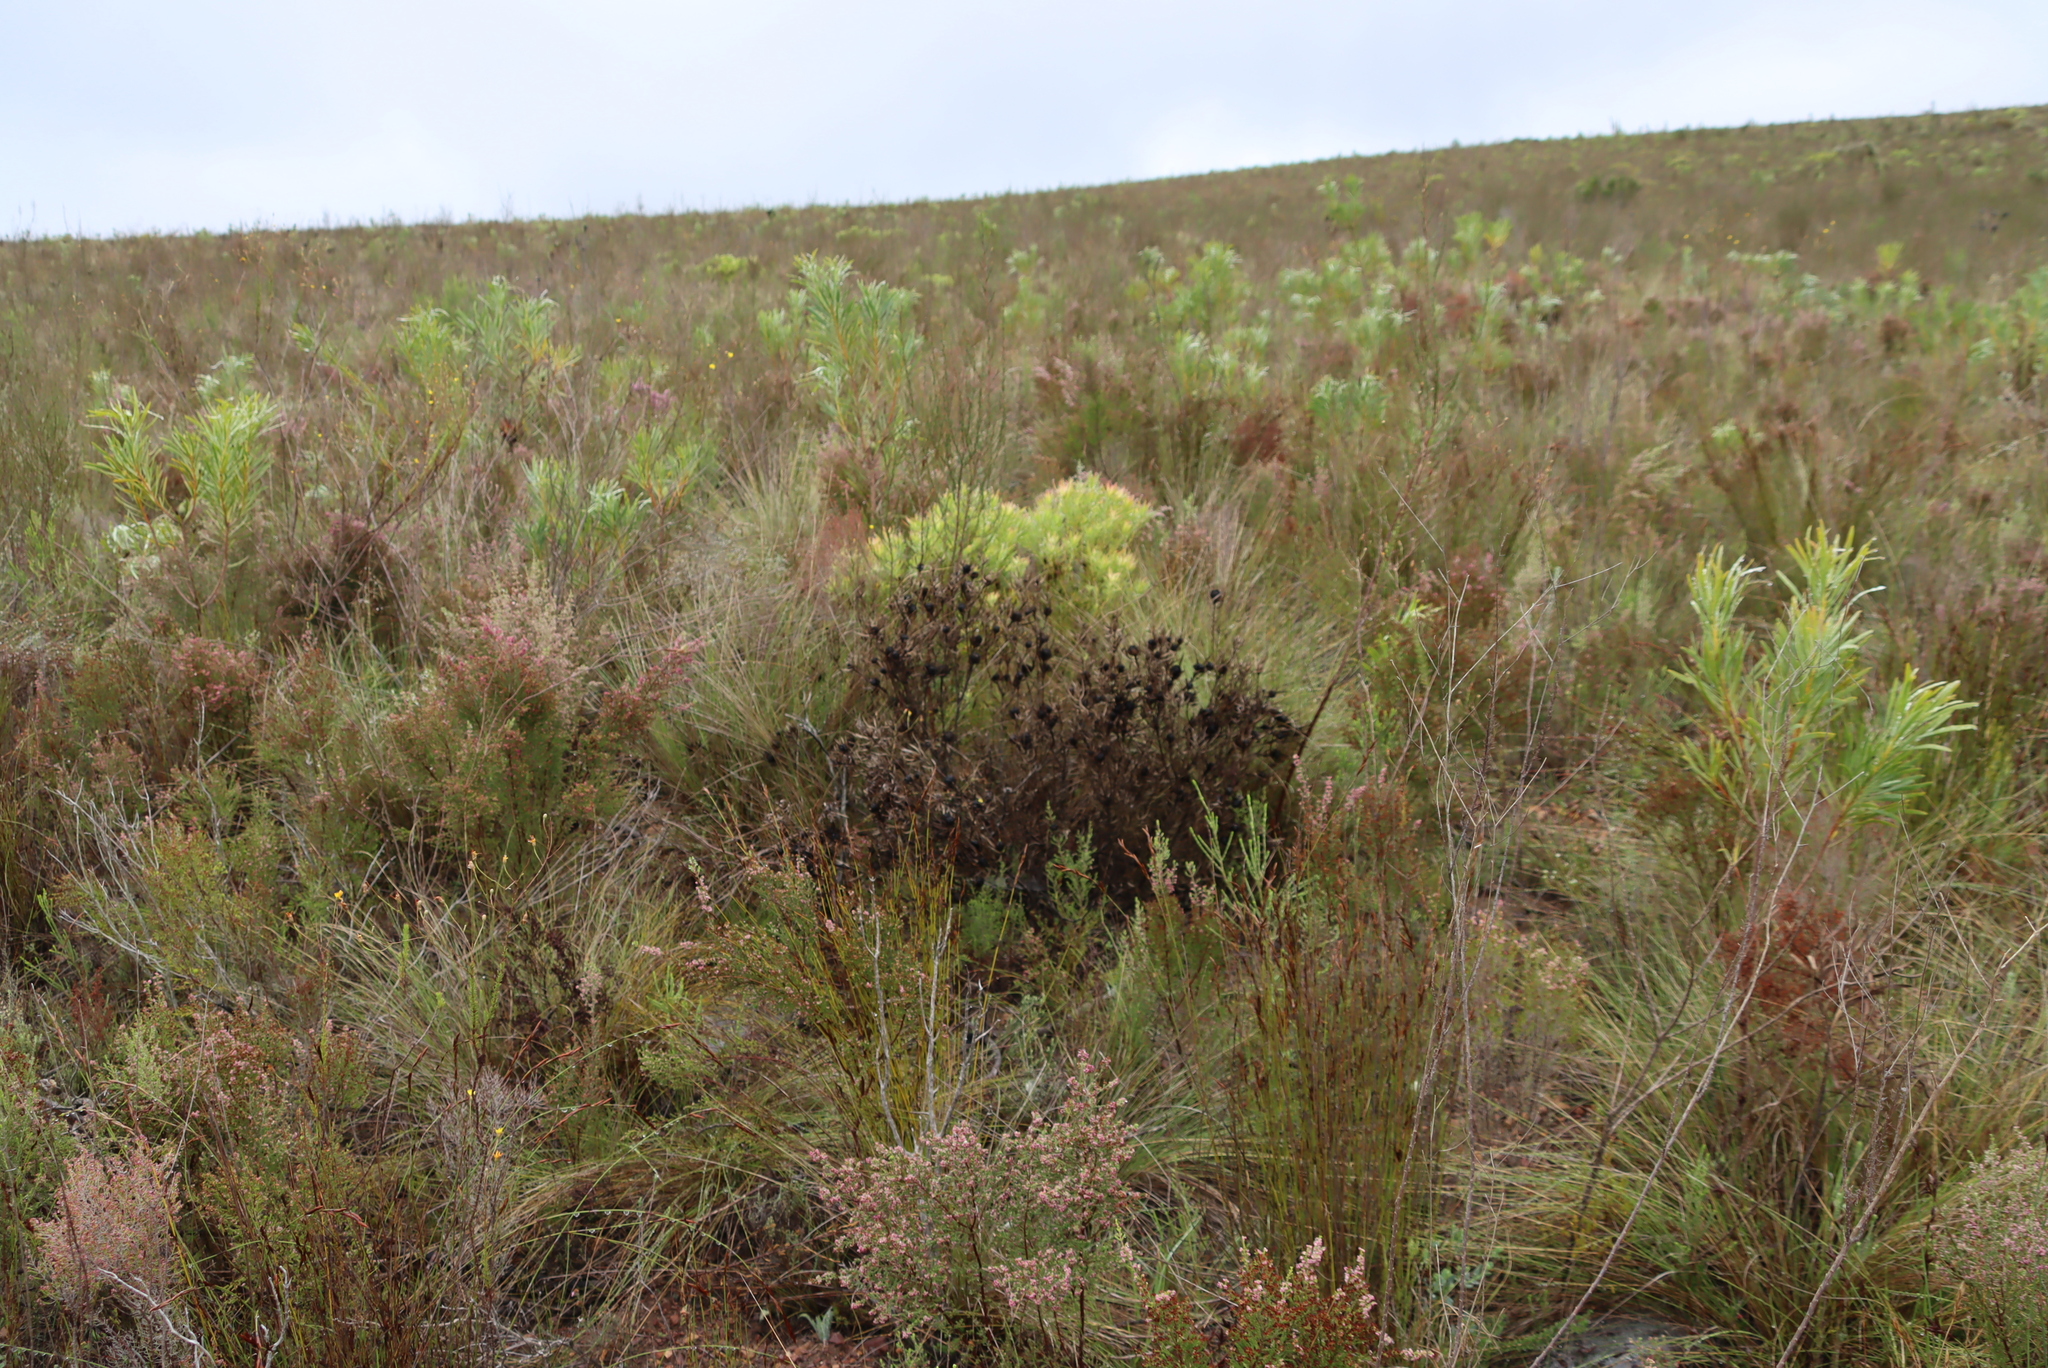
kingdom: Plantae
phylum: Tracheophyta
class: Magnoliopsida
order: Proteales
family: Proteaceae
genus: Protea
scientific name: Protea repens
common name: Sugarbush
